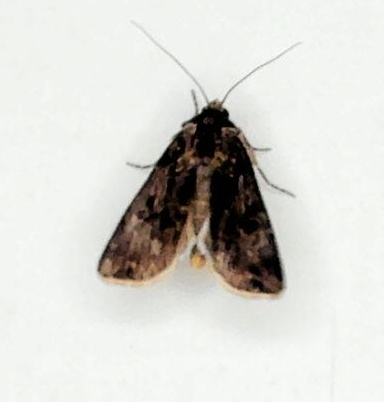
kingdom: Animalia
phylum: Arthropoda
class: Insecta
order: Lepidoptera
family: Noctuidae
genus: Agrotis
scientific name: Agrotis munda
